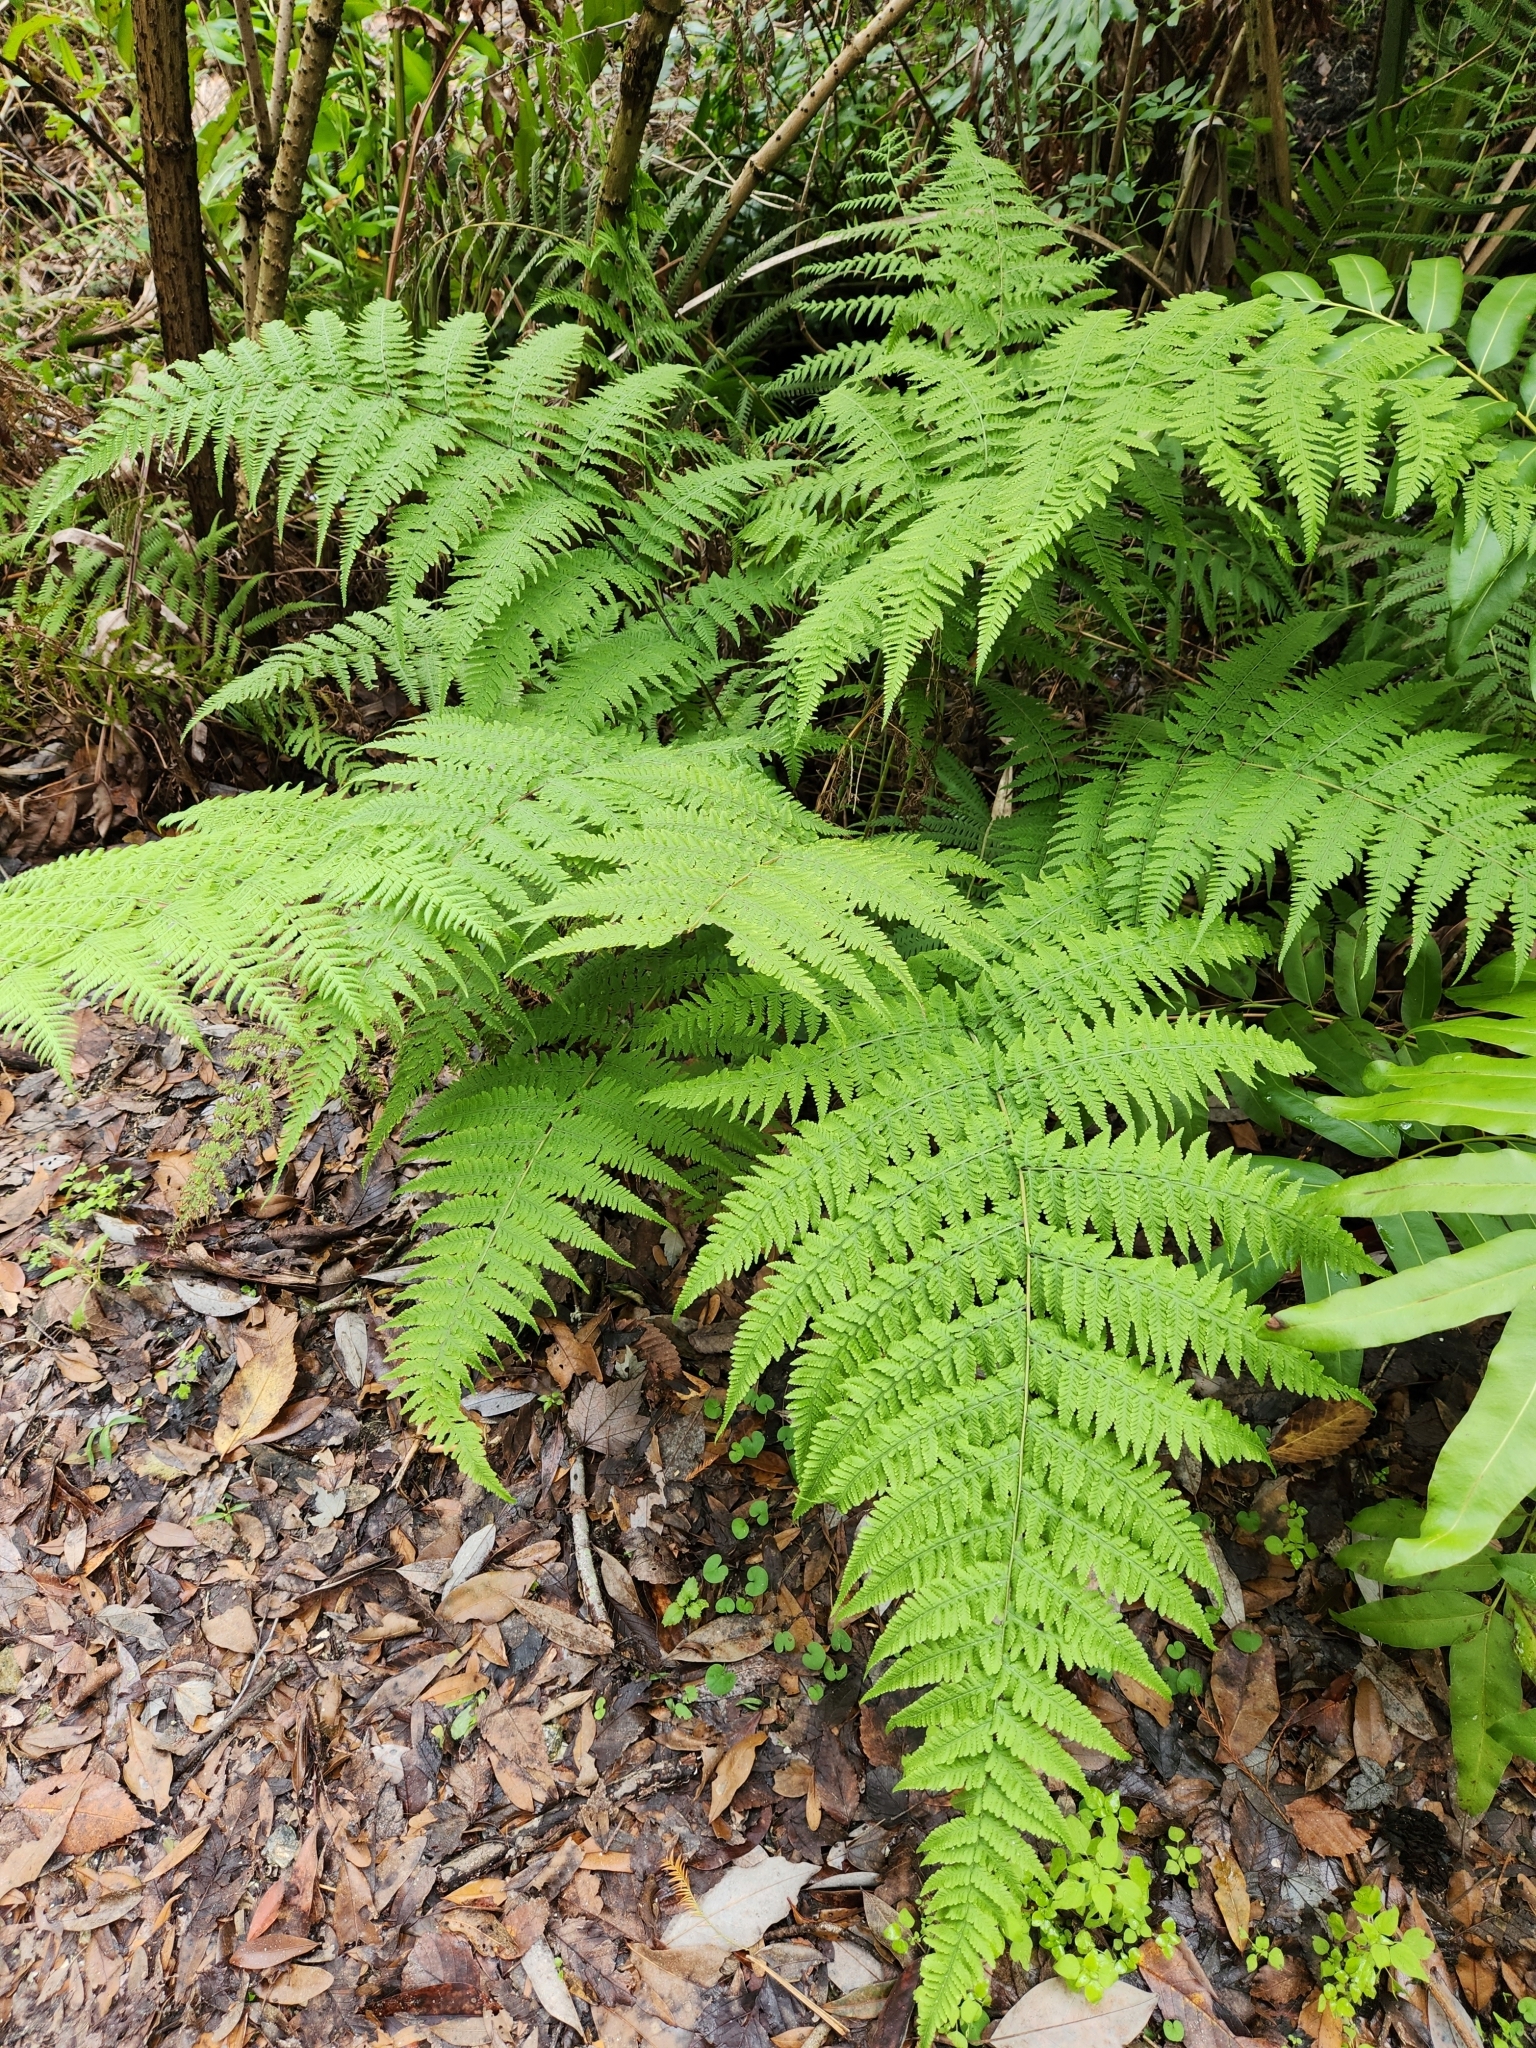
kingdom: Plantae
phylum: Tracheophyta
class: Polypodiopsida
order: Polypodiales
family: Thelypteridaceae
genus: Macrothelypteris
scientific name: Macrothelypteris torresiana
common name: Swordfern
